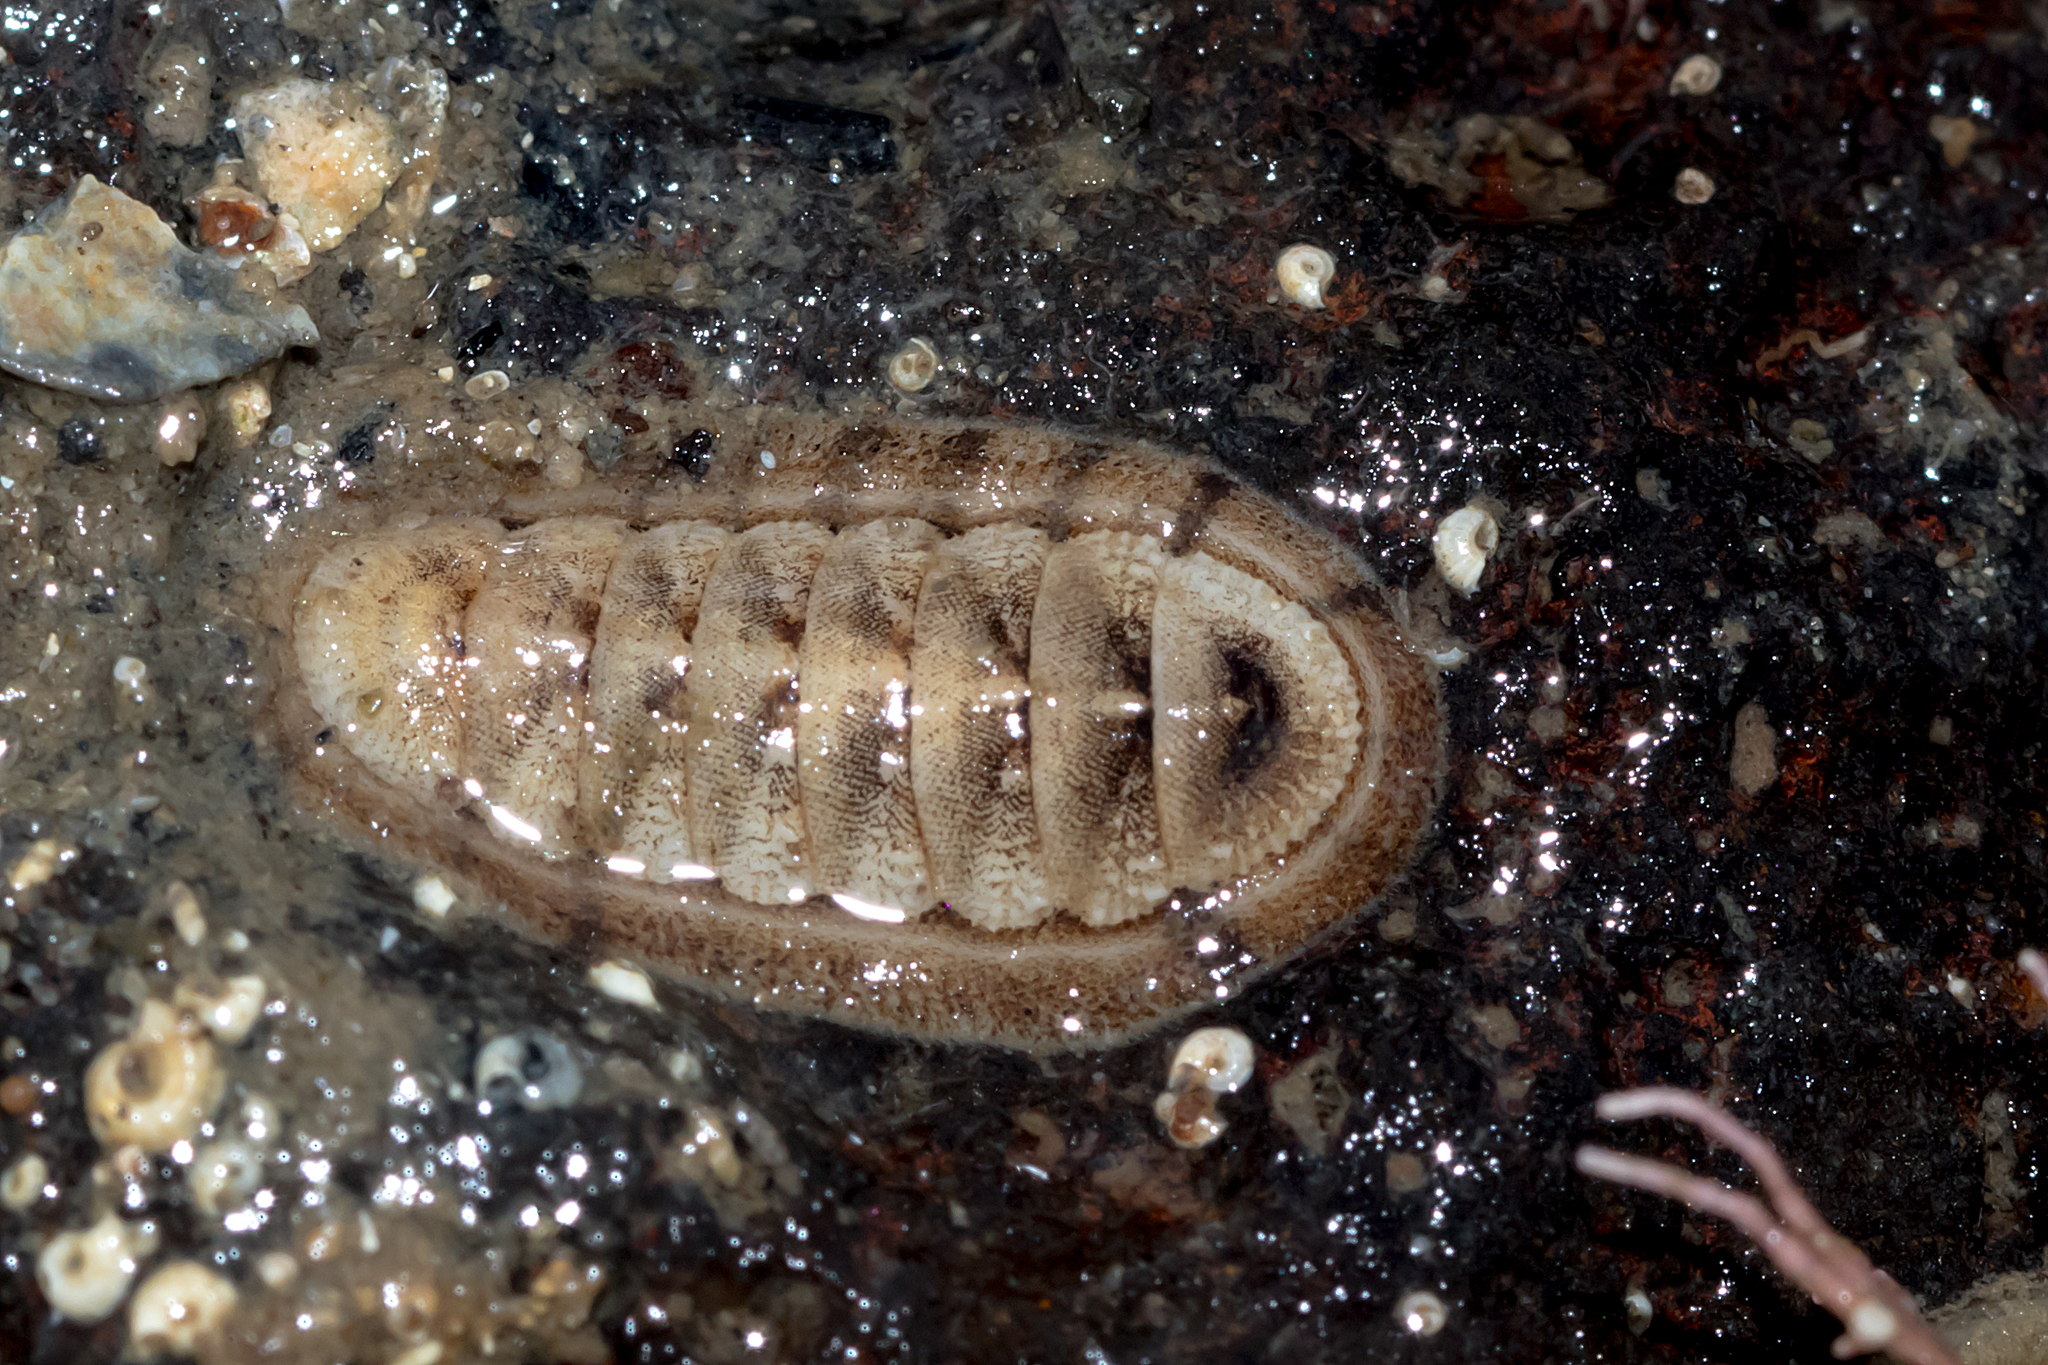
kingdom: Animalia
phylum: Mollusca
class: Polyplacophora
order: Chitonida
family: Ischnochitonidae
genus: Ischnochiton
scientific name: Ischnochiton cariosus
